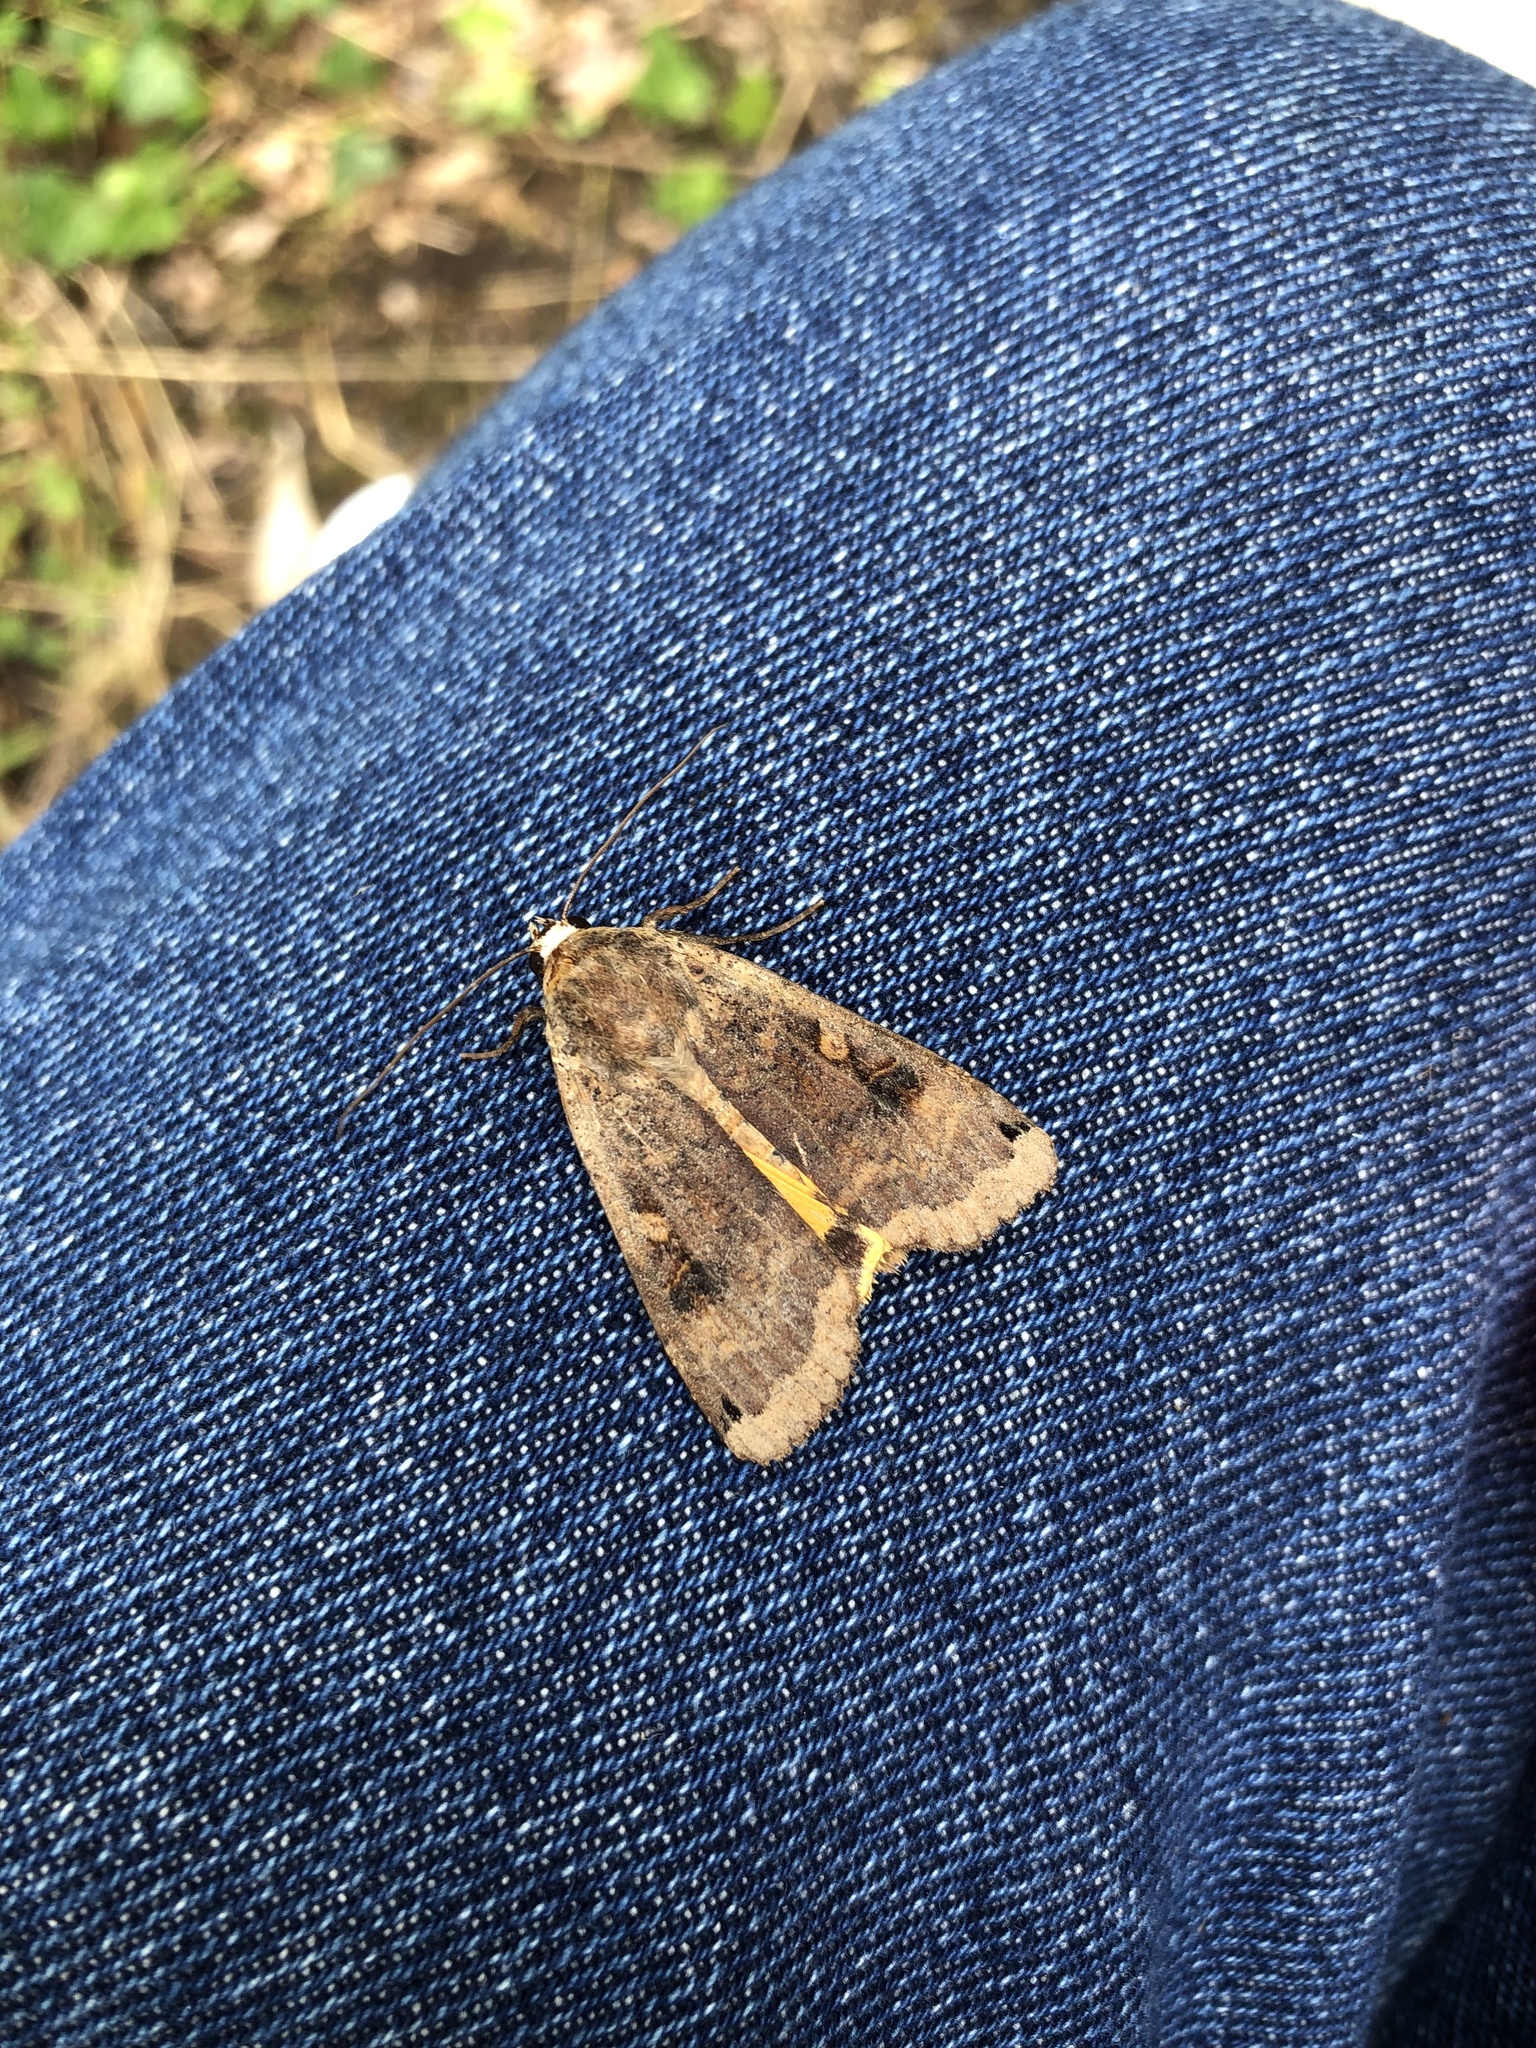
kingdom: Animalia
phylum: Arthropoda
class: Insecta
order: Lepidoptera
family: Noctuidae
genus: Noctua
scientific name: Noctua pronuba
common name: Large yellow underwing
